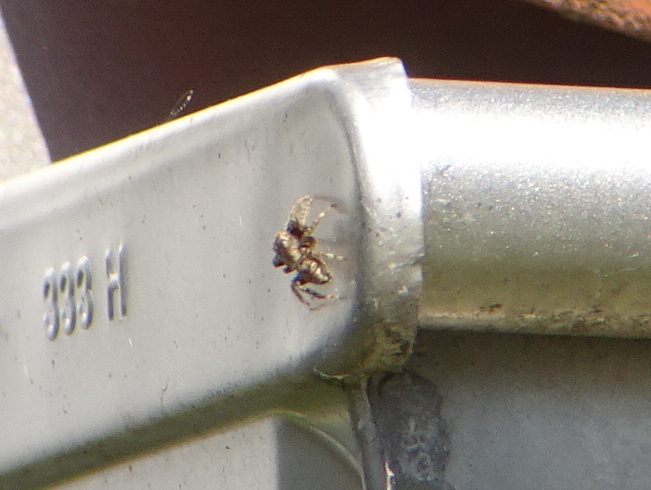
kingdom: Animalia
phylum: Arthropoda
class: Arachnida
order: Araneae
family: Salticidae
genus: Marpissa
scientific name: Marpissa muscosa
